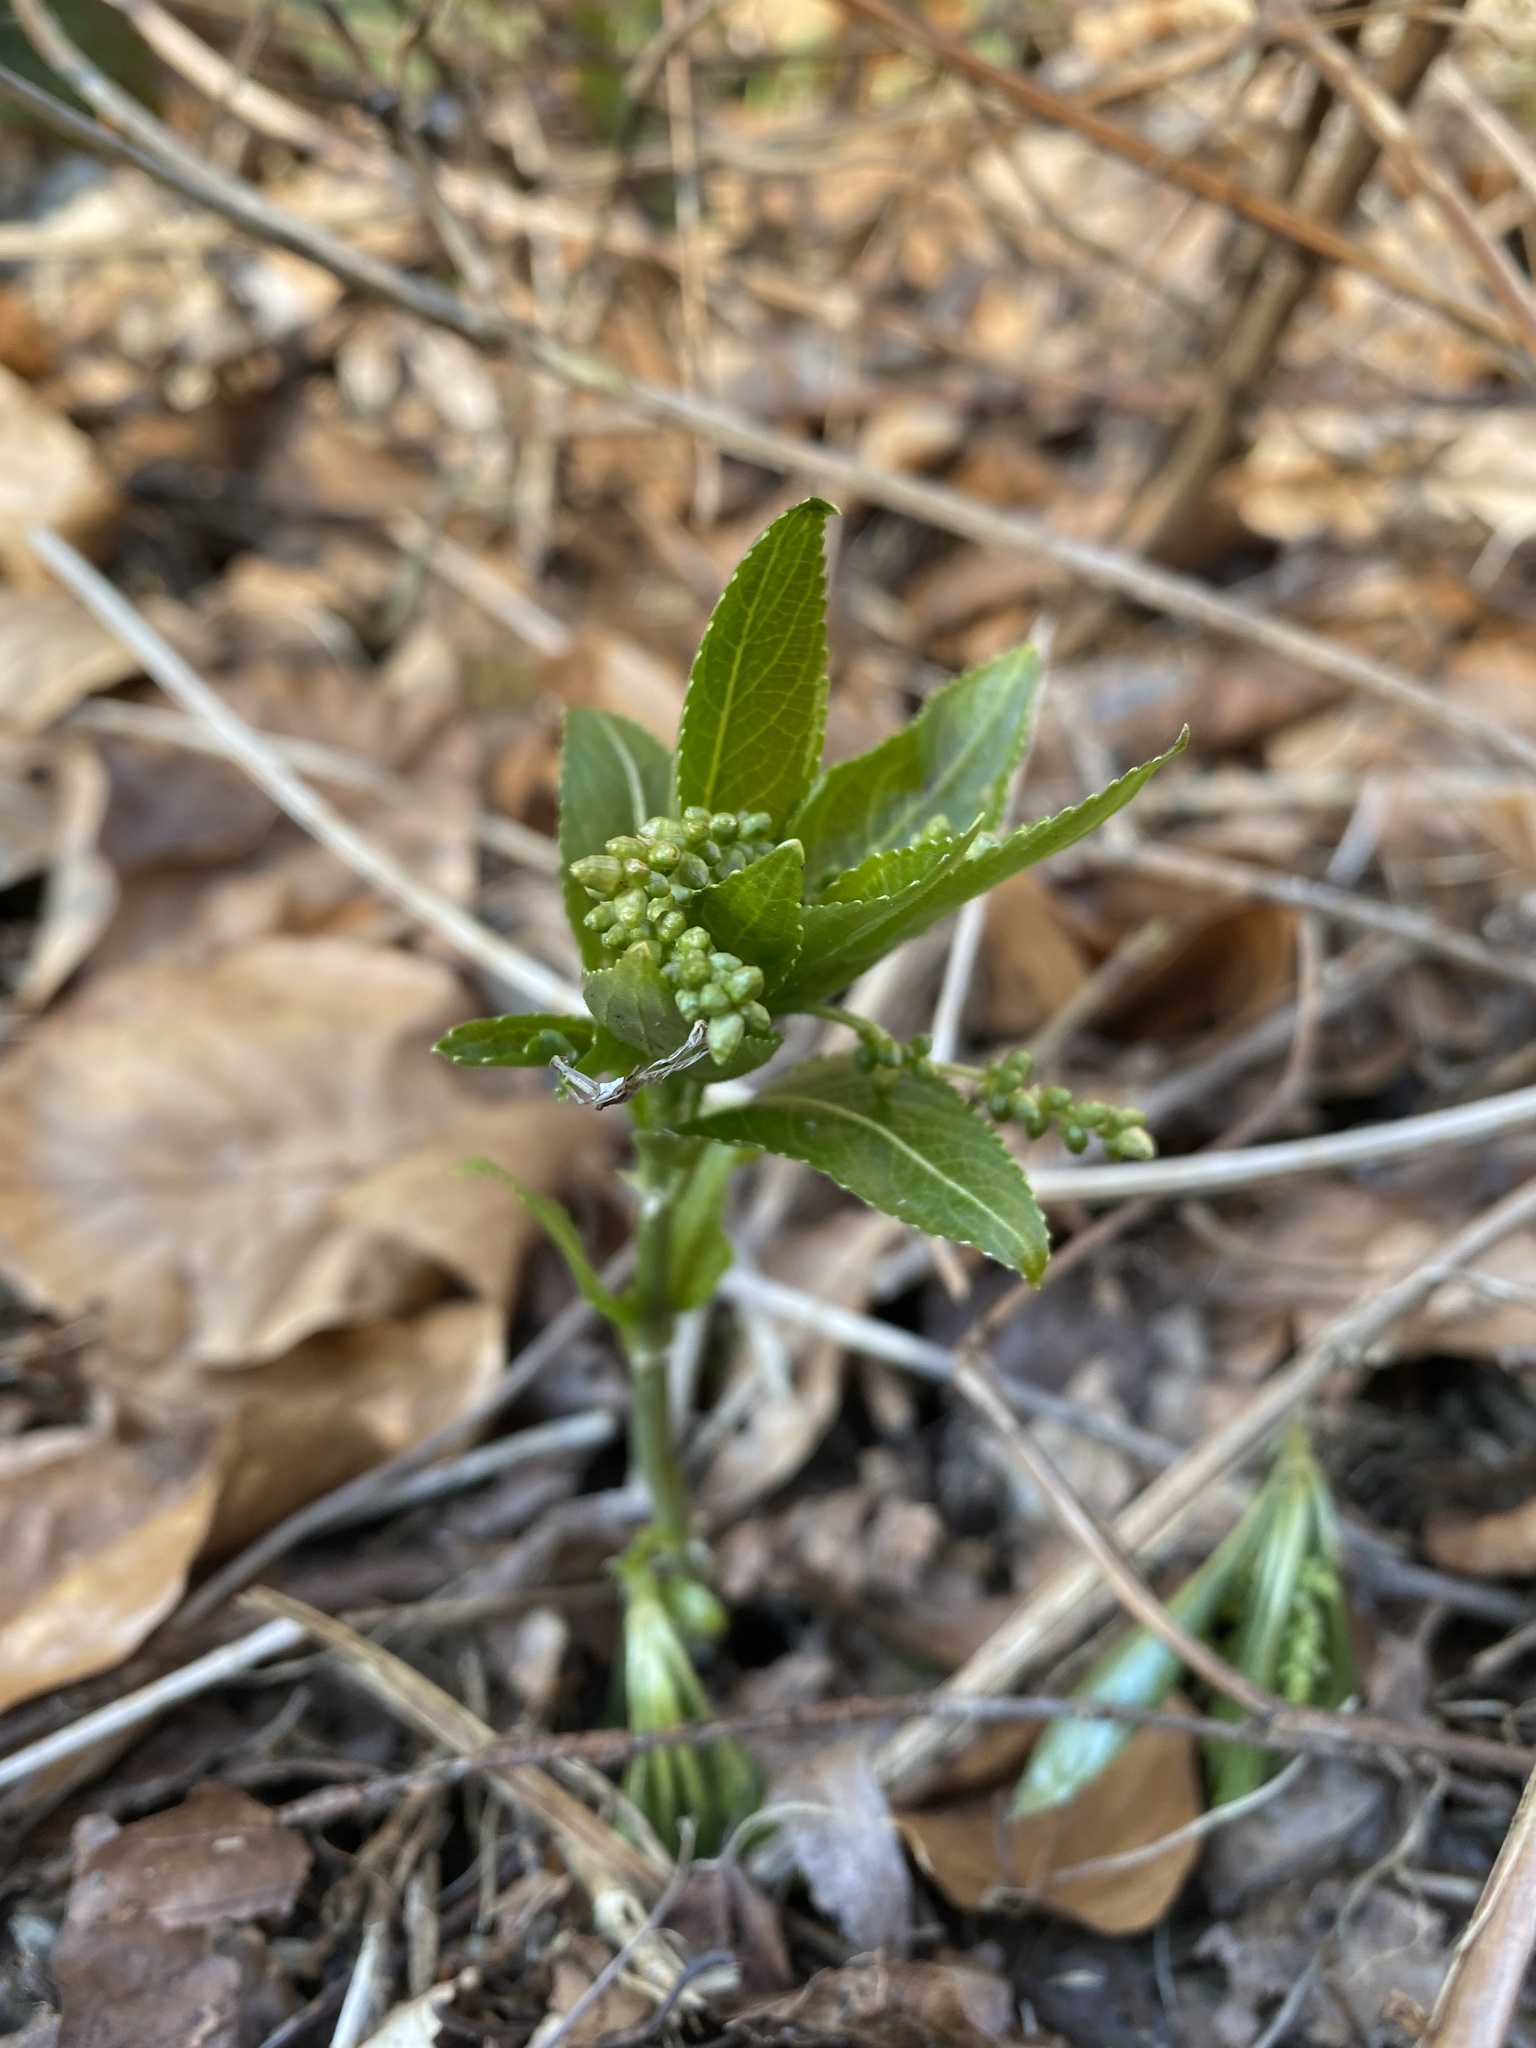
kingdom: Plantae
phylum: Tracheophyta
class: Magnoliopsida
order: Malpighiales
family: Euphorbiaceae
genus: Mercurialis
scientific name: Mercurialis perennis
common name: Dog mercury
